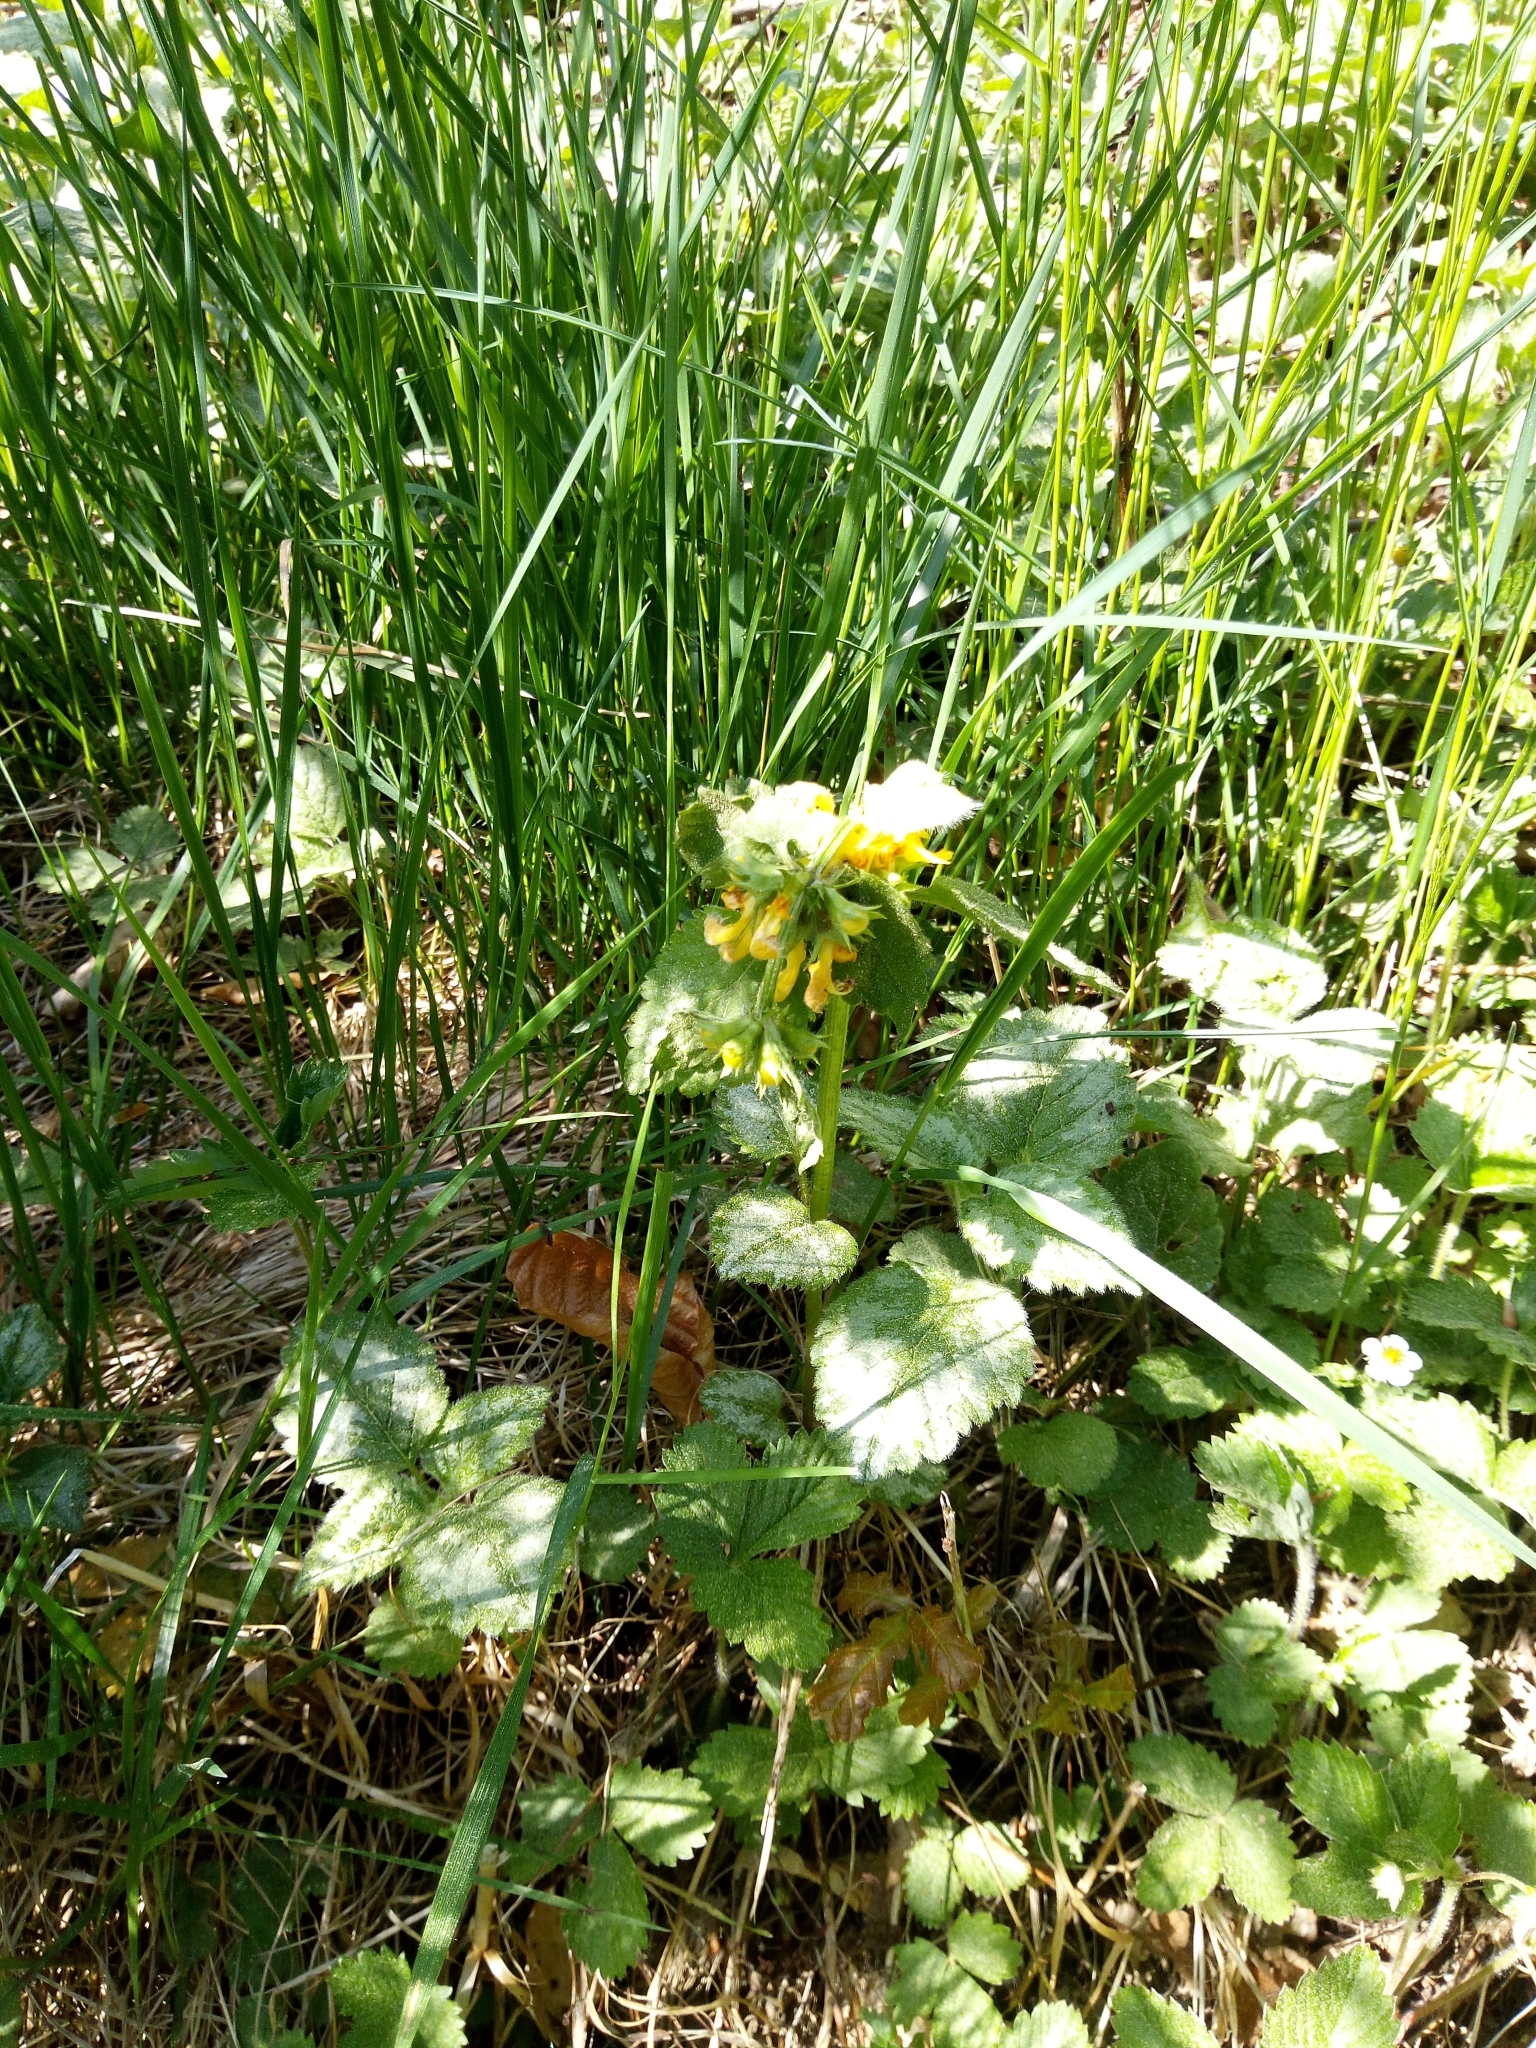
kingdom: Plantae
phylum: Tracheophyta
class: Magnoliopsida
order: Lamiales
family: Lamiaceae
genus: Lamium
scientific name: Lamium galeobdolon
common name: Yellow archangel
